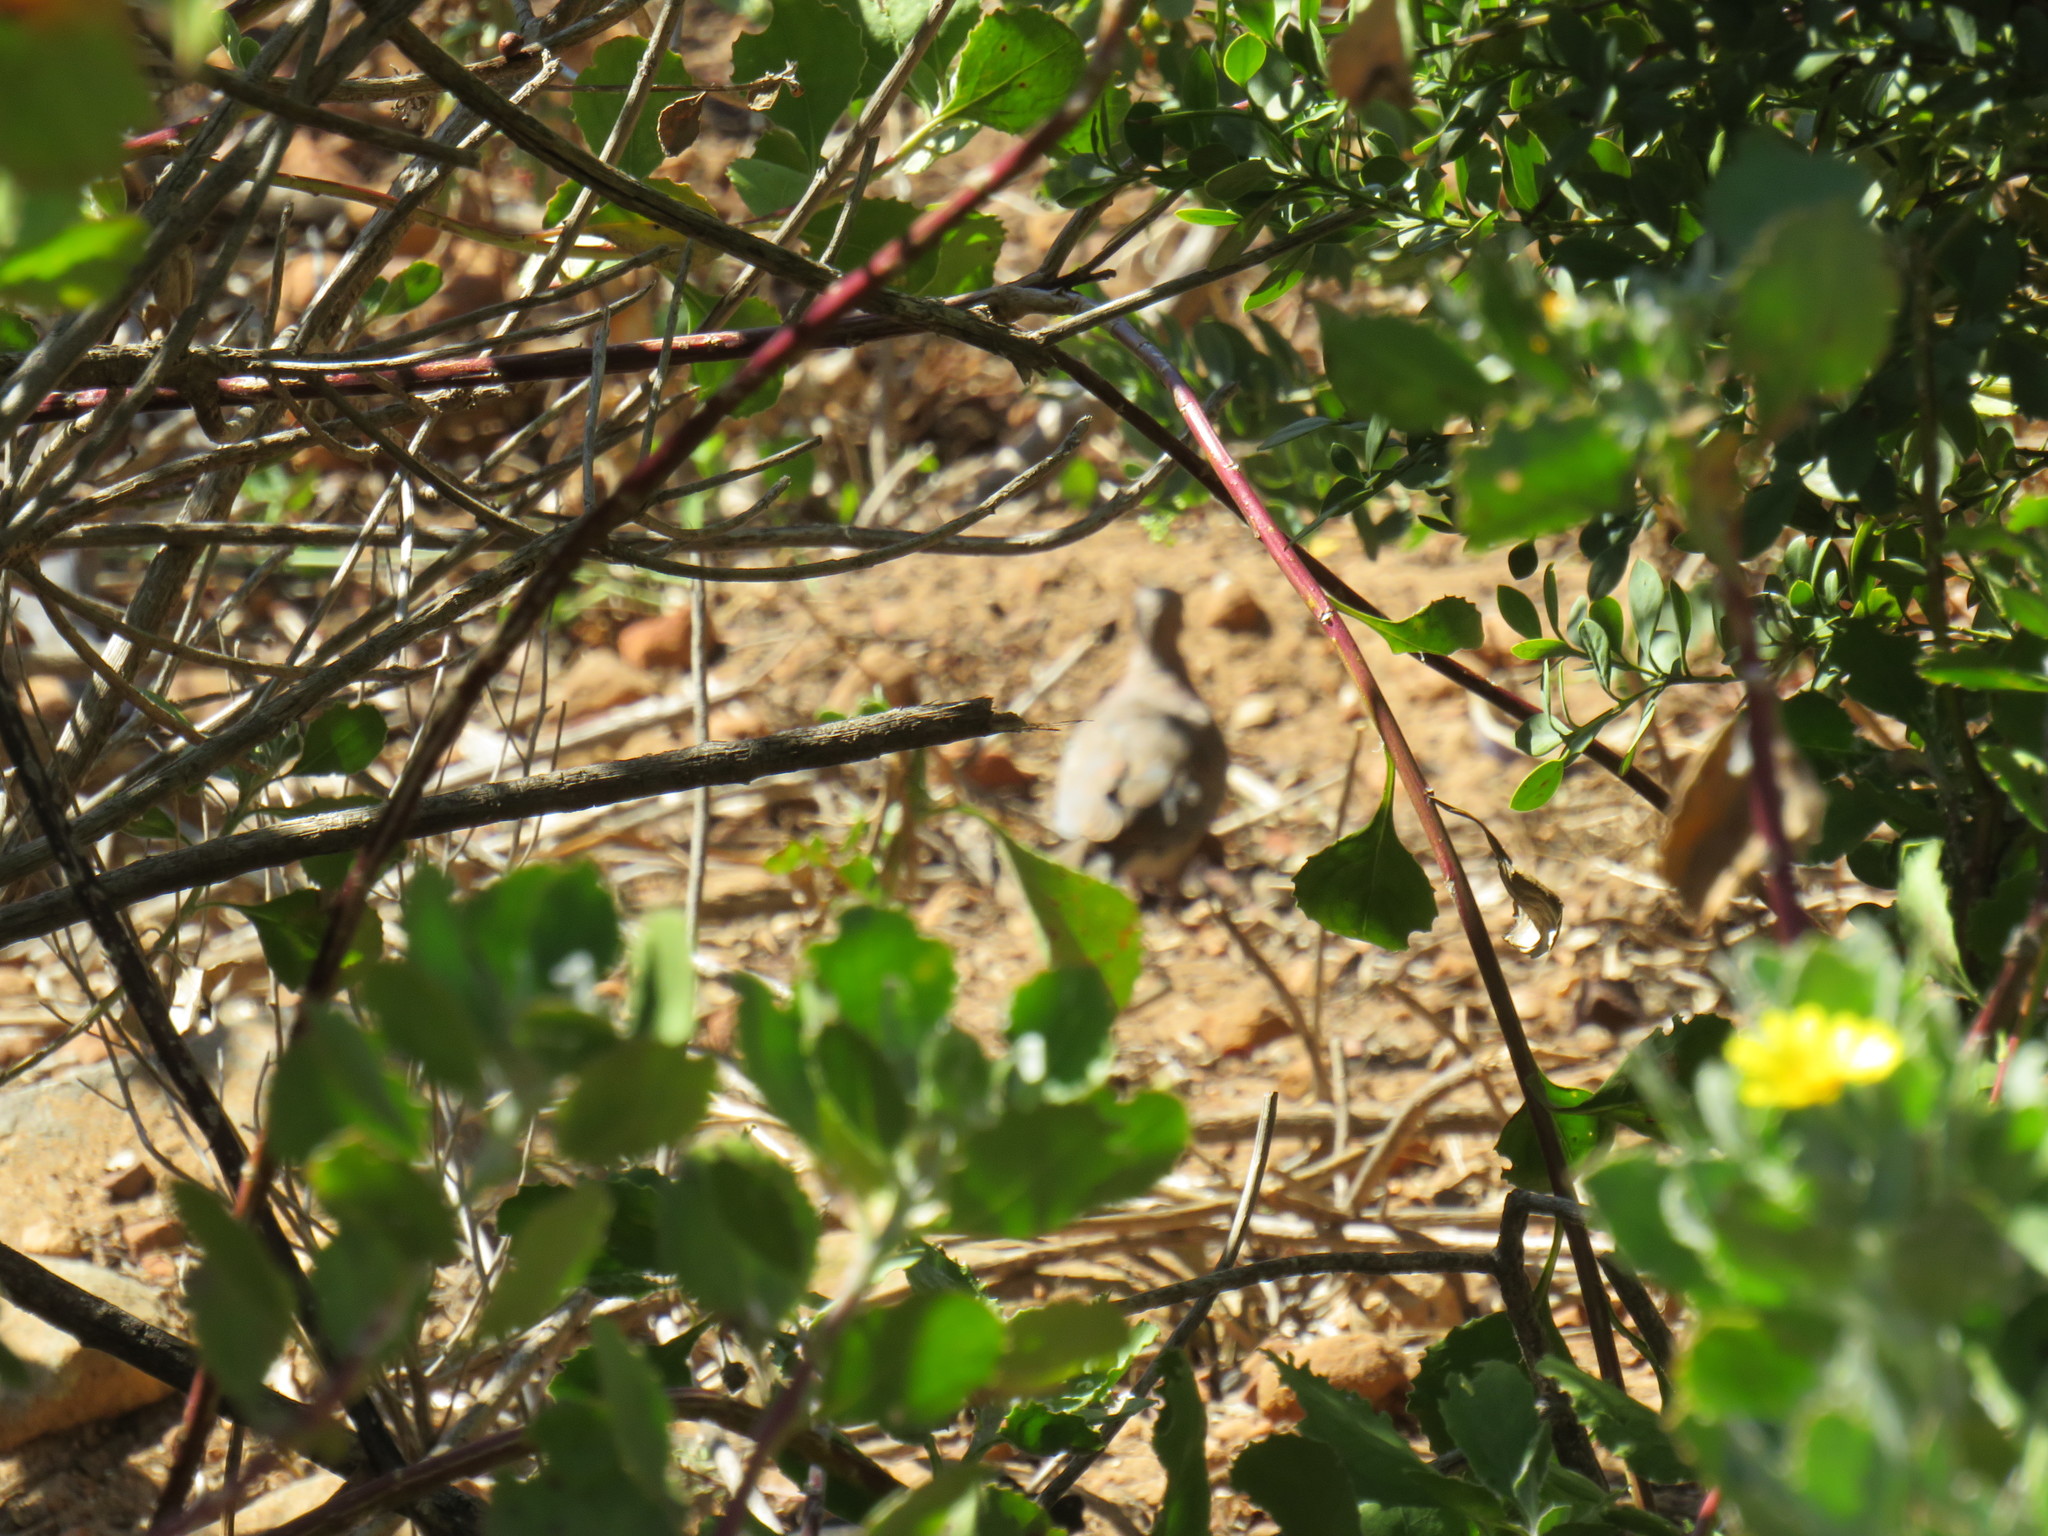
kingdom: Animalia
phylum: Chordata
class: Aves
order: Columbiformes
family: Columbidae
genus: Spilopelia
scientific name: Spilopelia senegalensis
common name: Laughing dove
